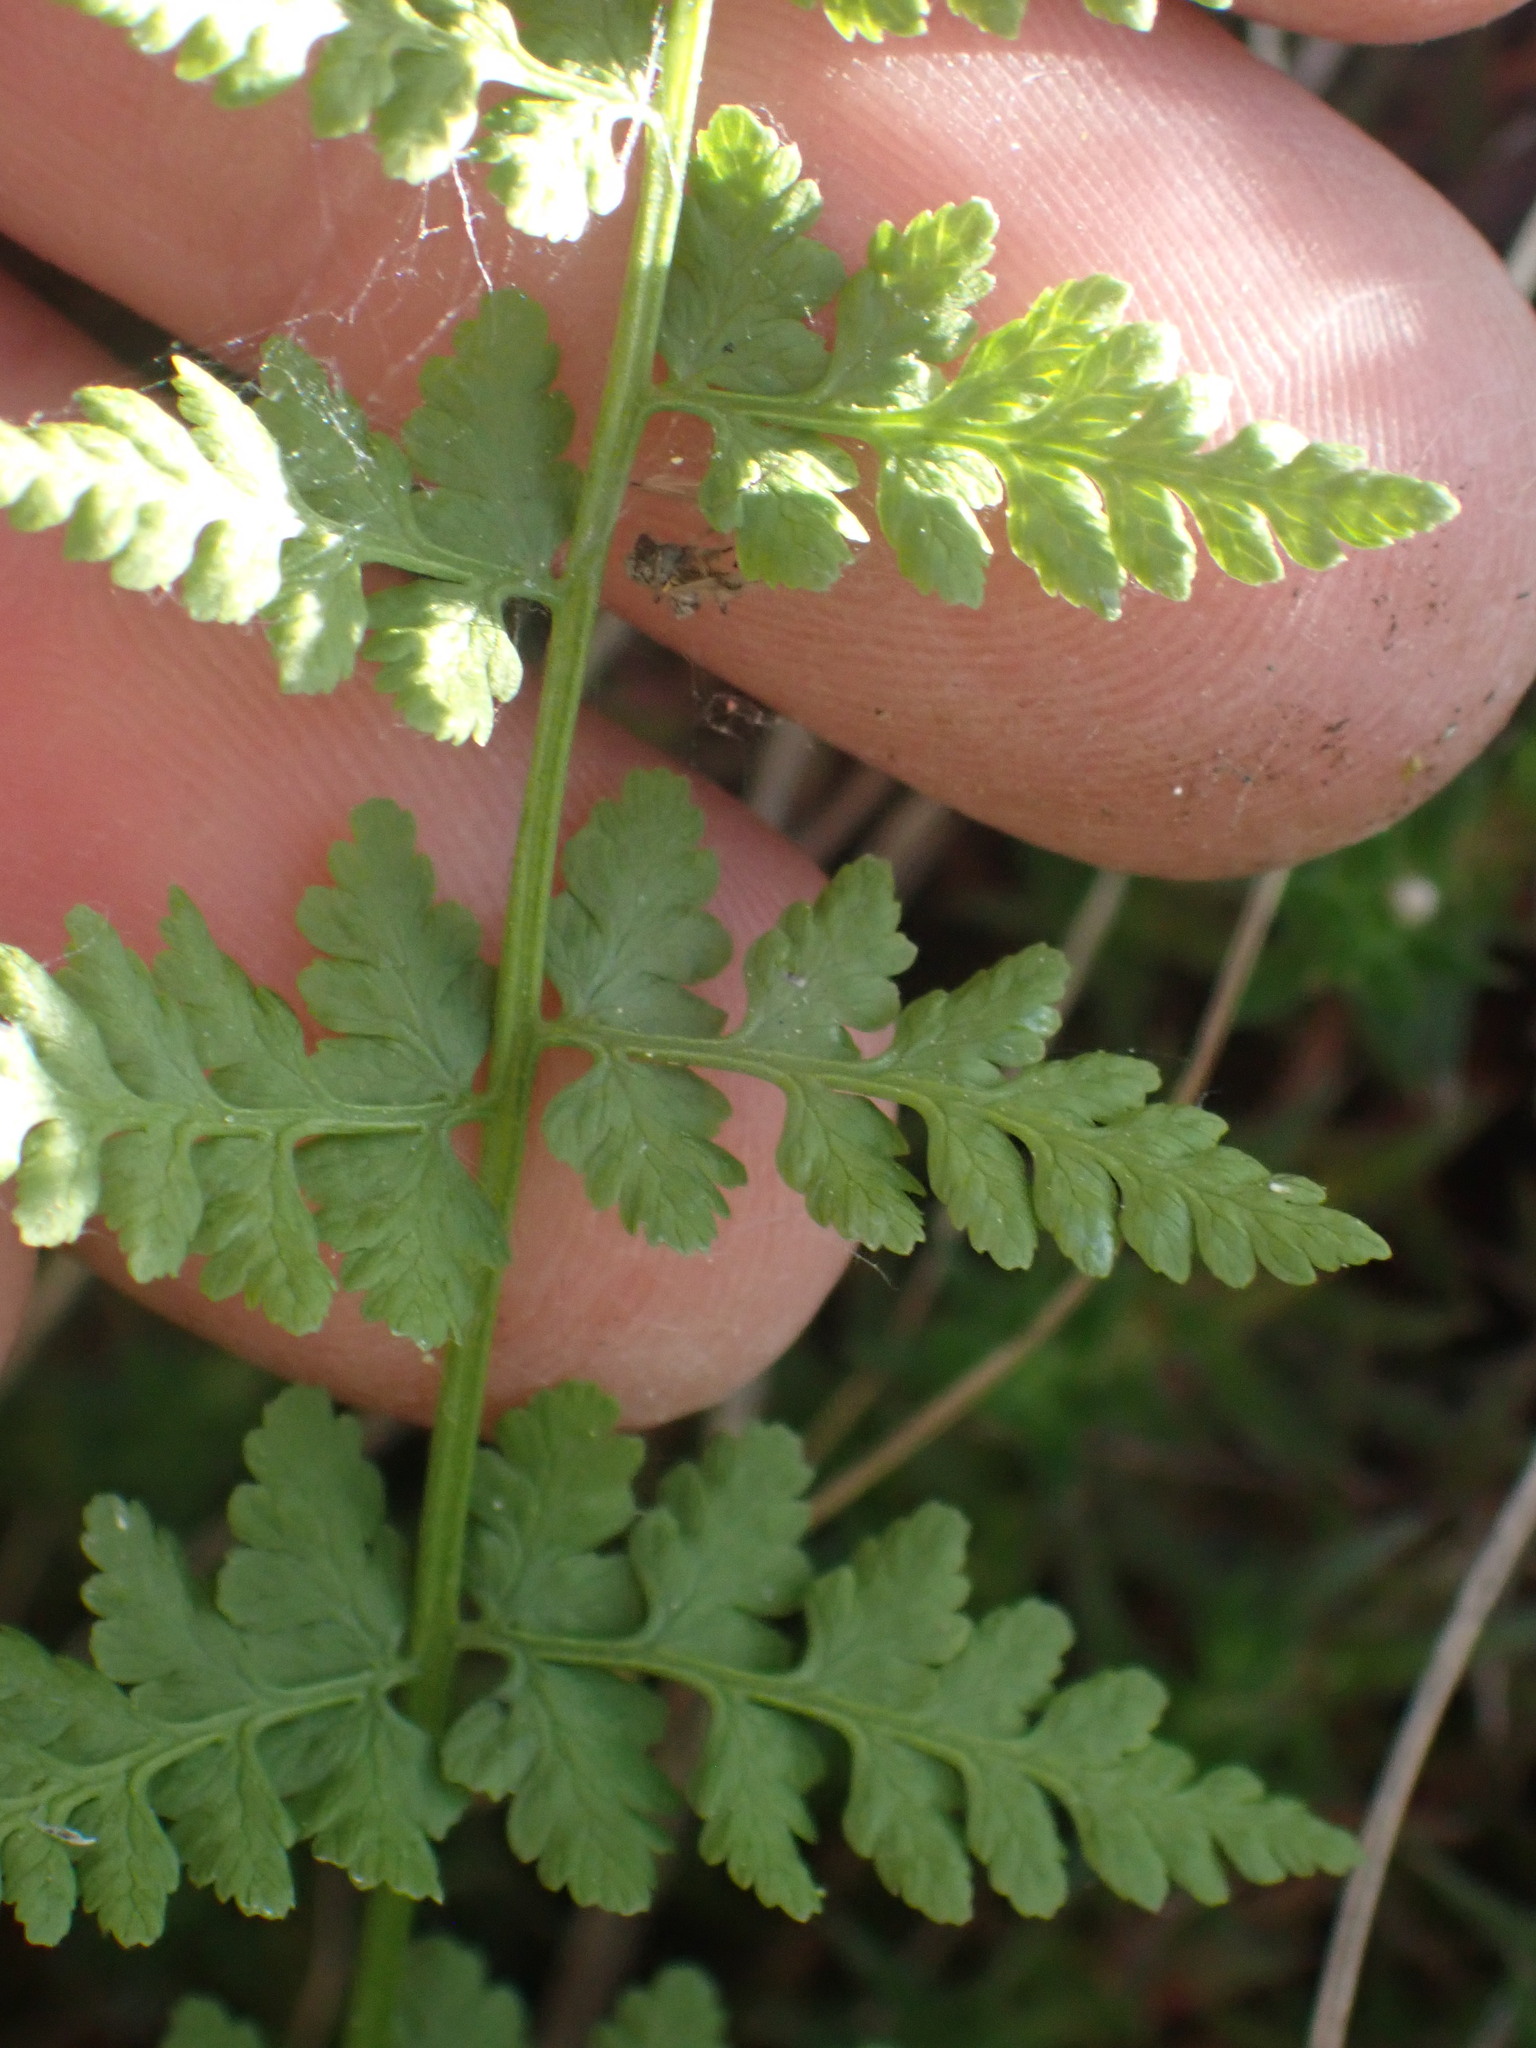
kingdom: Plantae
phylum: Tracheophyta
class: Polypodiopsida
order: Polypodiales
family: Cystopteridaceae
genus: Cystopteris
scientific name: Cystopteris fragilis
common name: Brittle bladder fern
